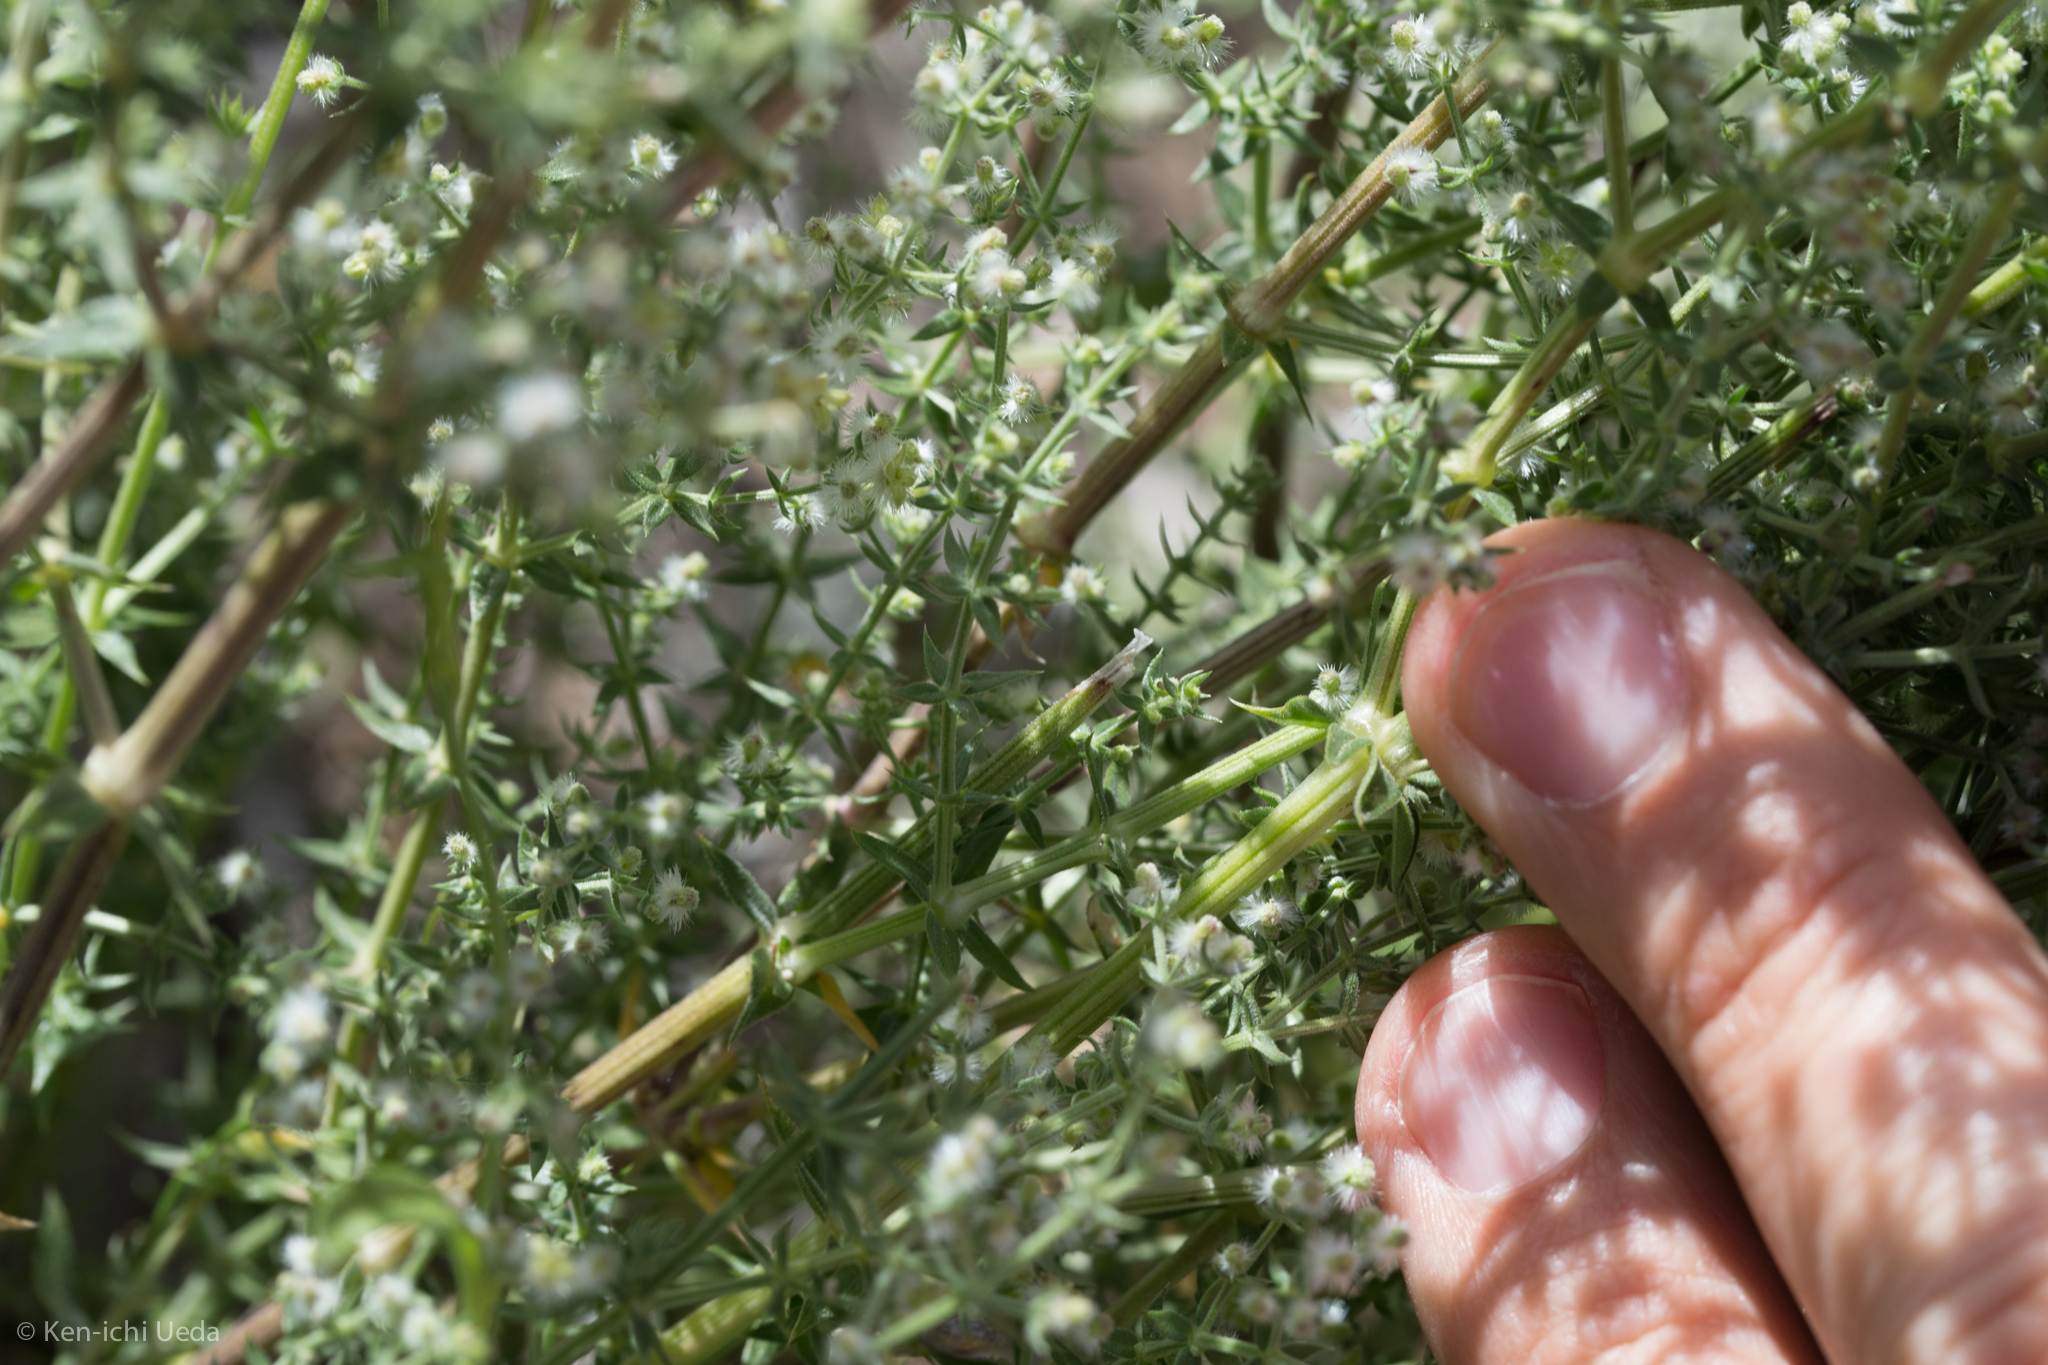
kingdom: Plantae
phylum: Tracheophyta
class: Magnoliopsida
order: Gentianales
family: Rubiaceae
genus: Galium
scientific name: Galium stellatum
